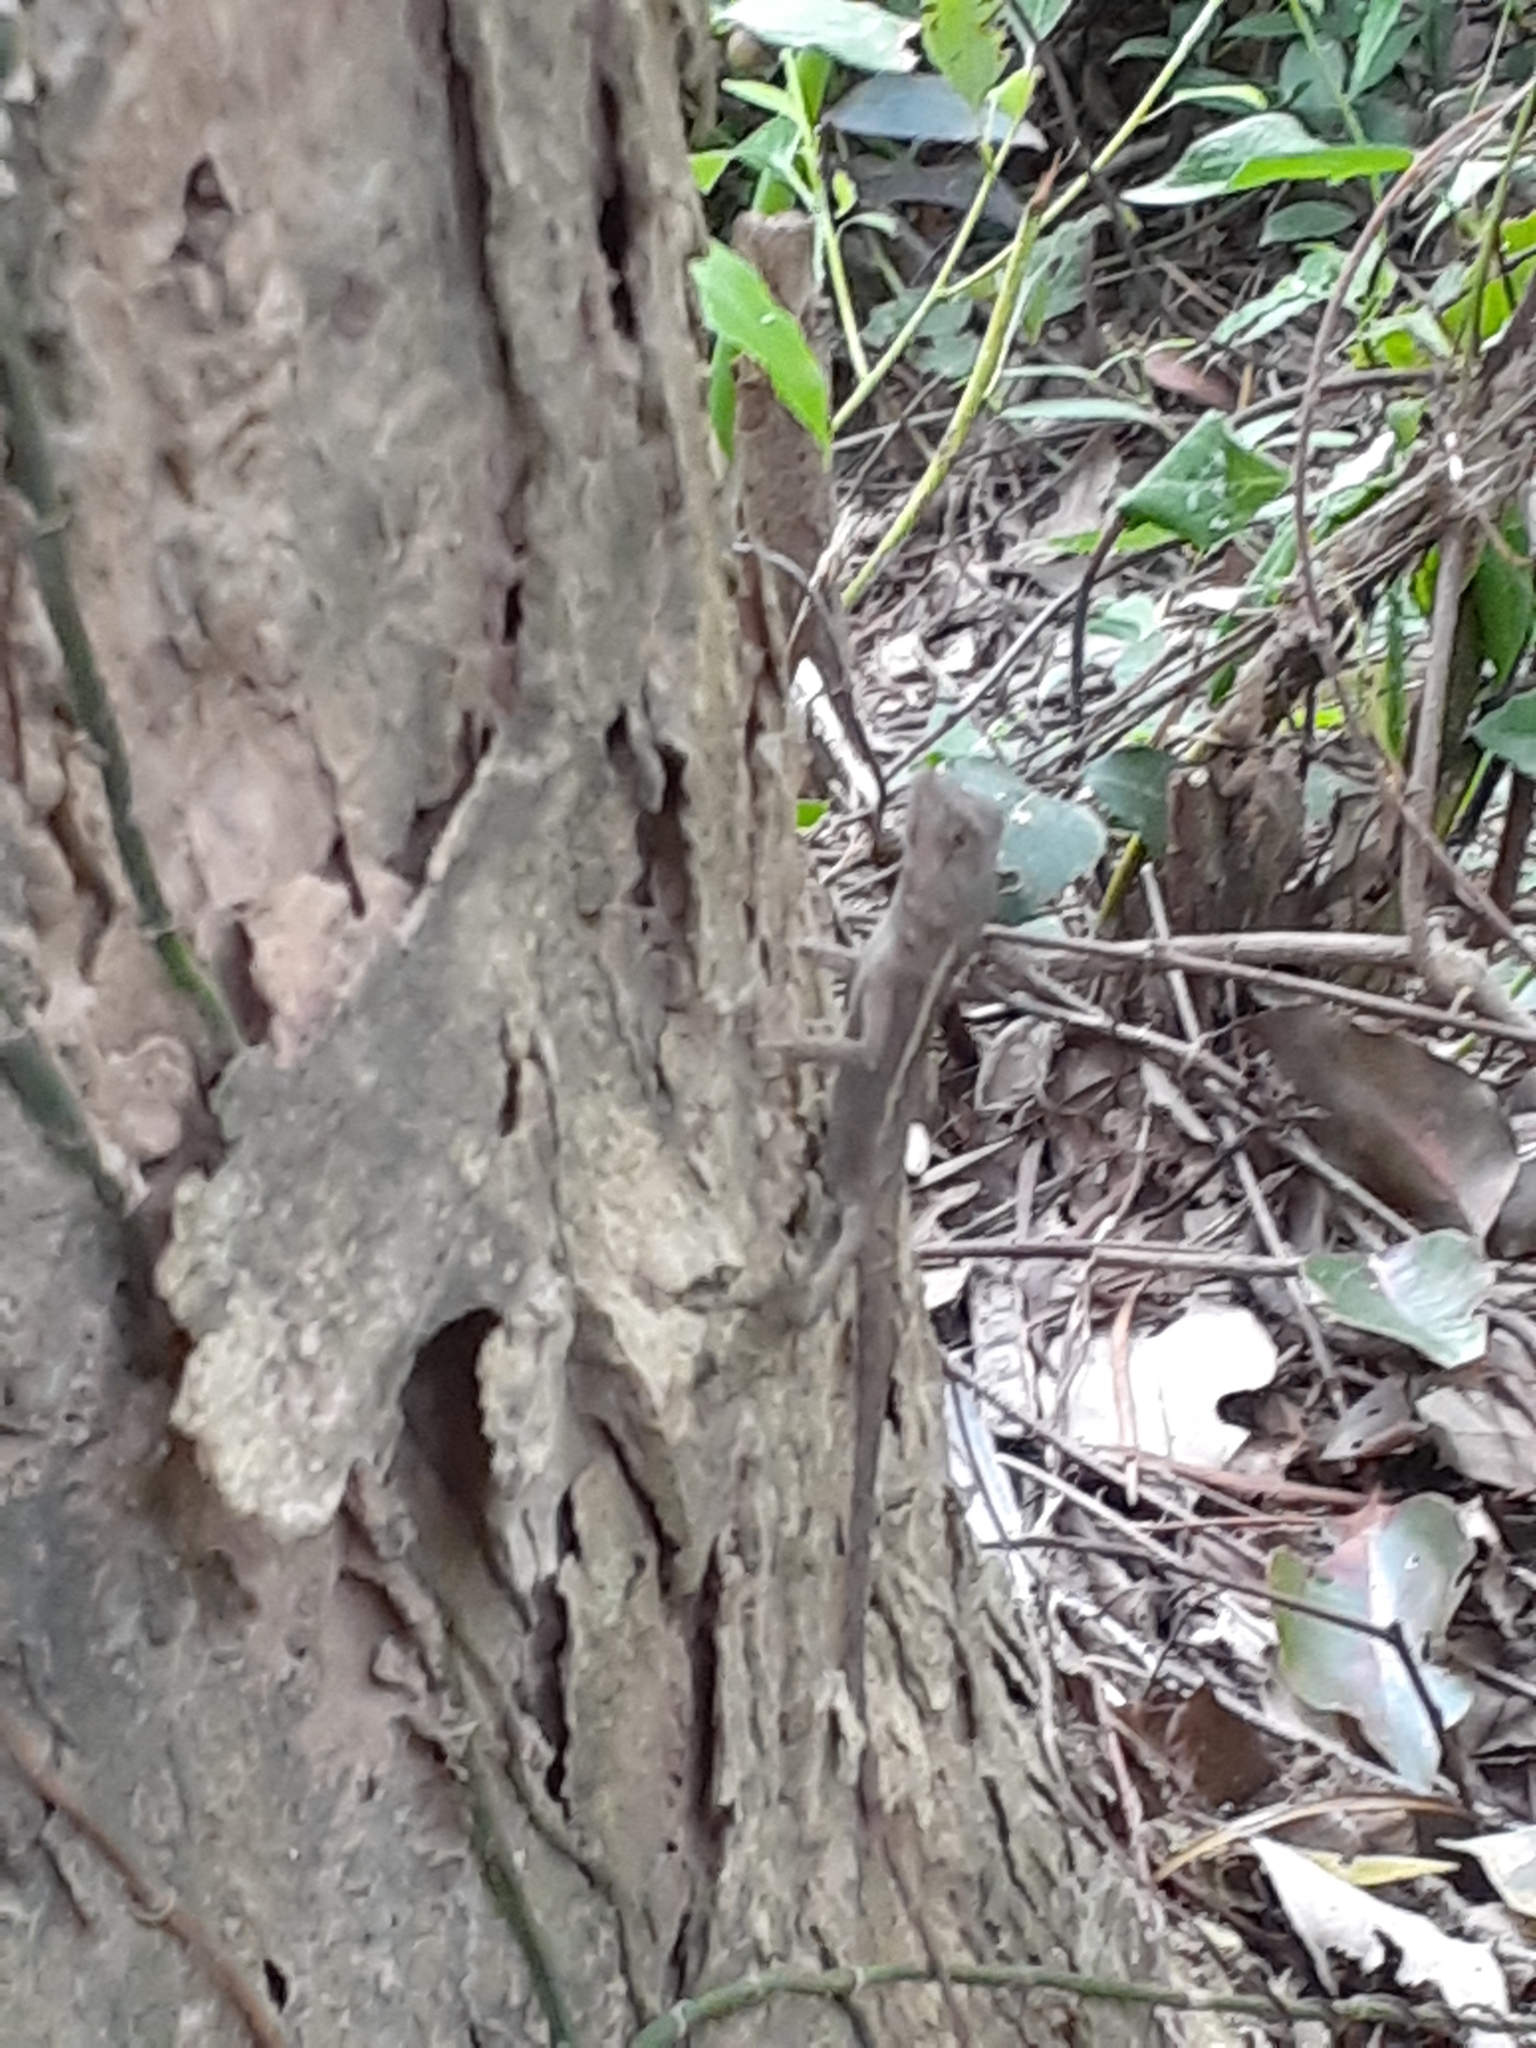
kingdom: Animalia
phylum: Chordata
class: Squamata
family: Agamidae
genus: Diploderma
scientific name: Diploderma swinhonis
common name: Taiwan japalure
